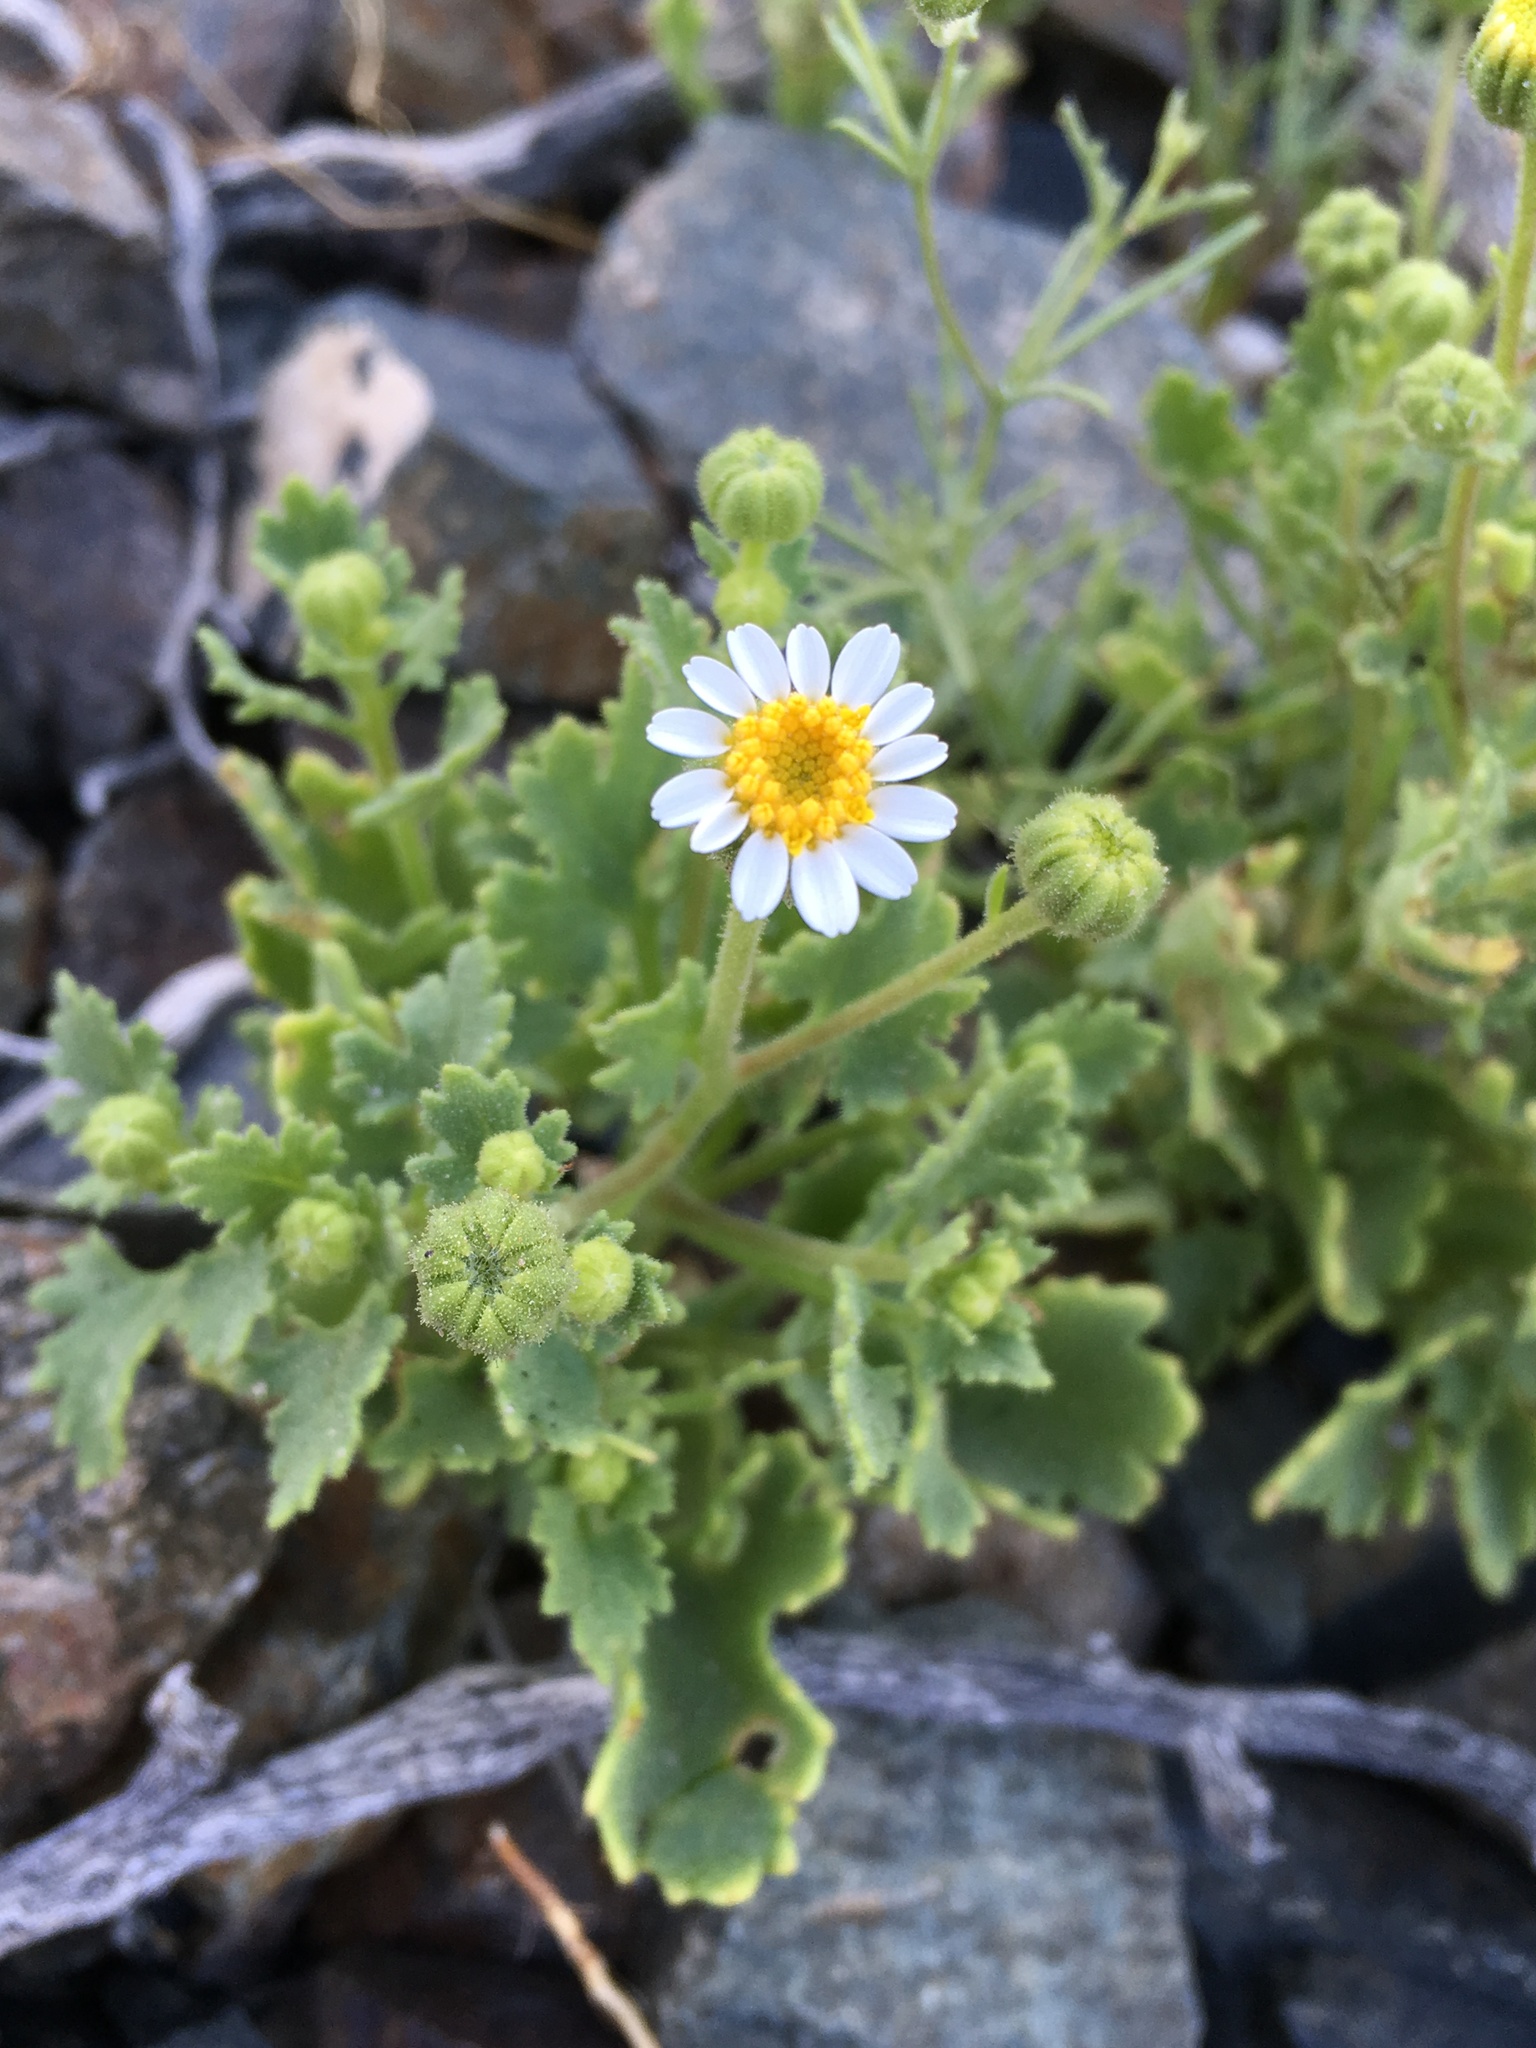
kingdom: Plantae
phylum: Tracheophyta
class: Magnoliopsida
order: Asterales
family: Asteraceae
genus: Laphamia
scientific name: Laphamia emoryi
